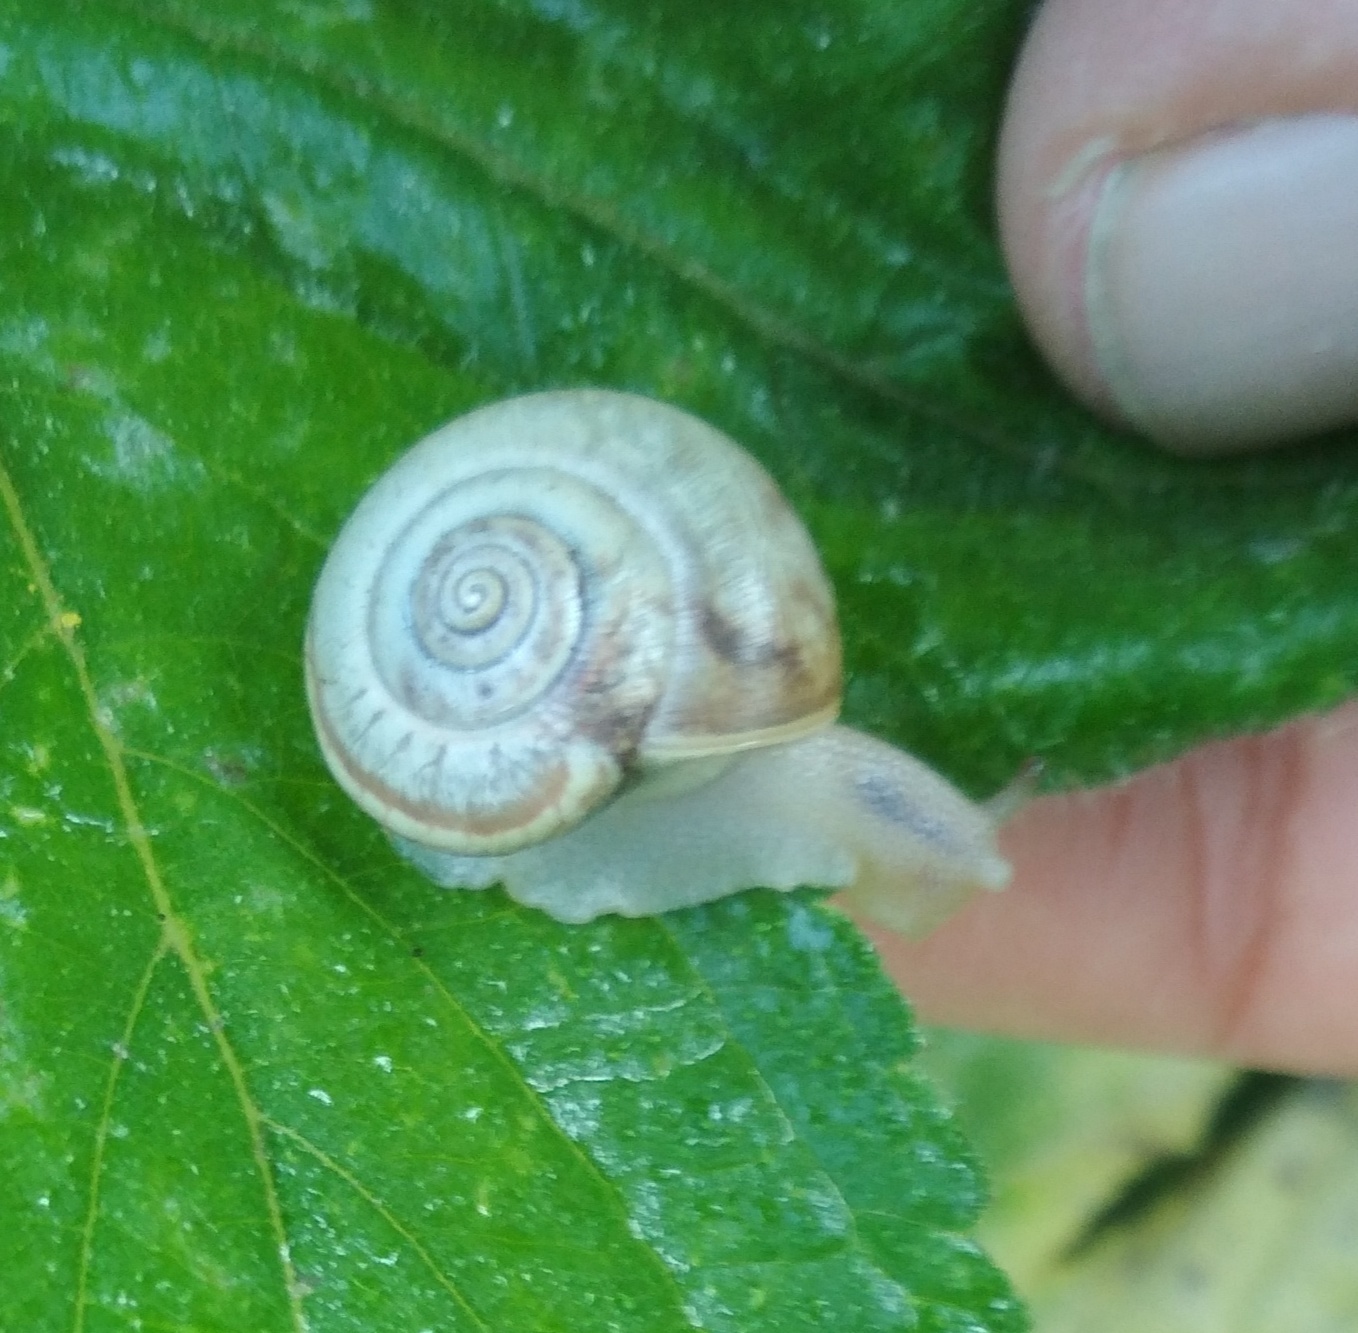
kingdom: Animalia
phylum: Mollusca
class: Gastropoda
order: Stylommatophora
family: Hygromiidae
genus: Monacha
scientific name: Monacha cantiana
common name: Kentish snail
